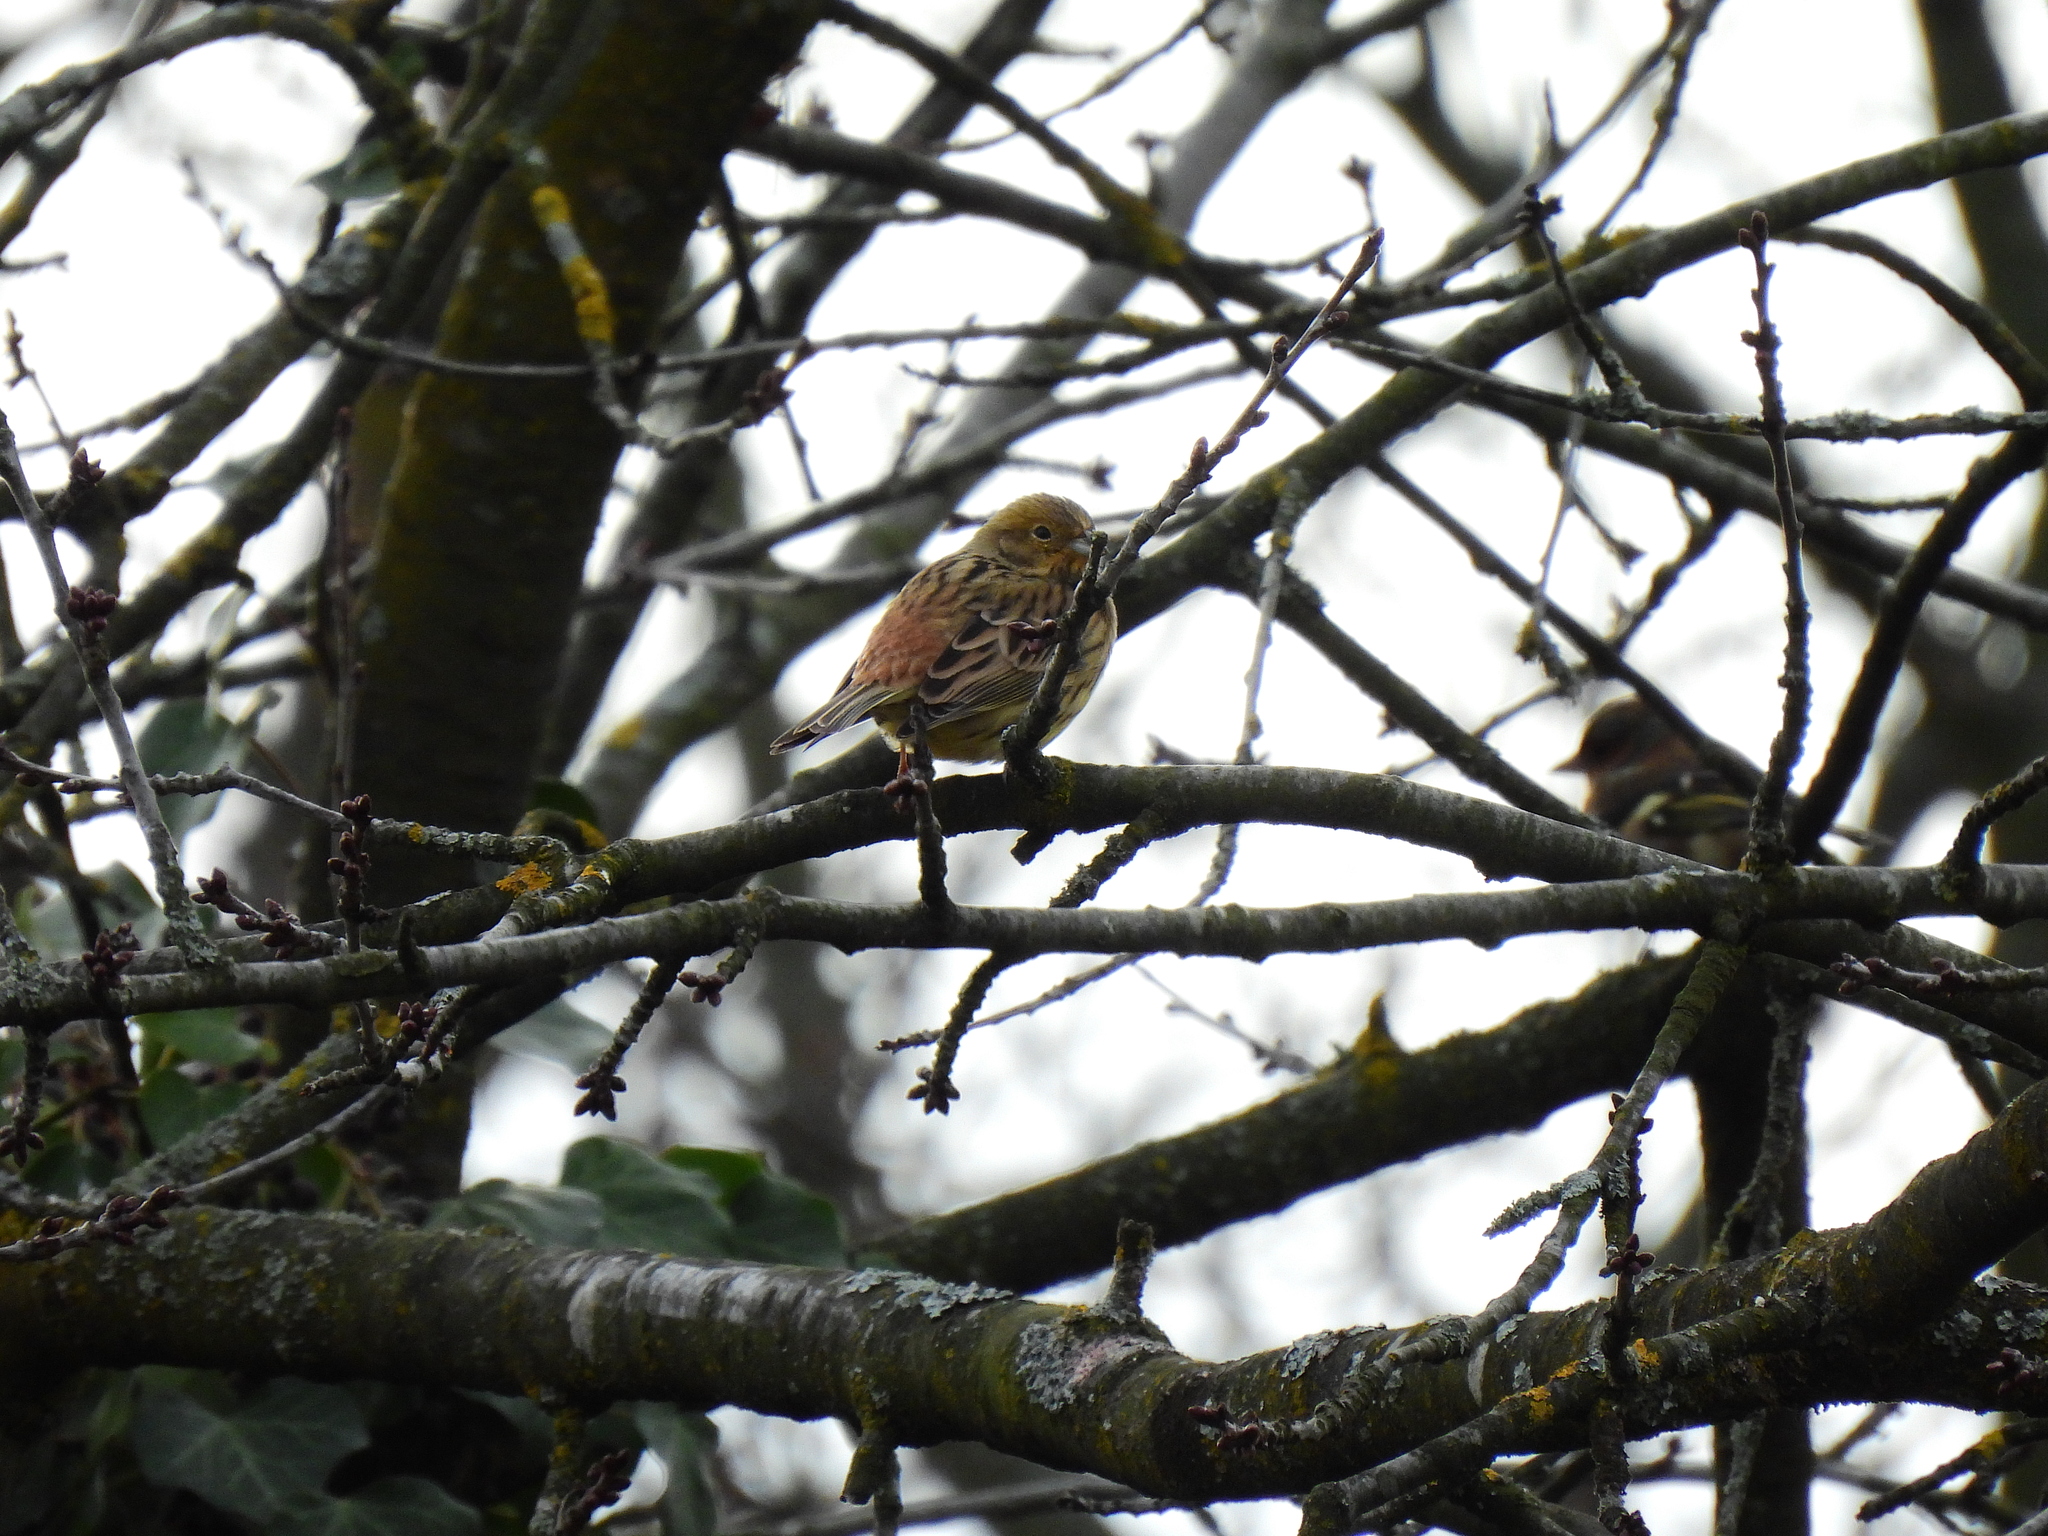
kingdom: Animalia
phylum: Chordata
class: Aves
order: Passeriformes
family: Emberizidae
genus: Emberiza
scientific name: Emberiza citrinella
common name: Yellowhammer
